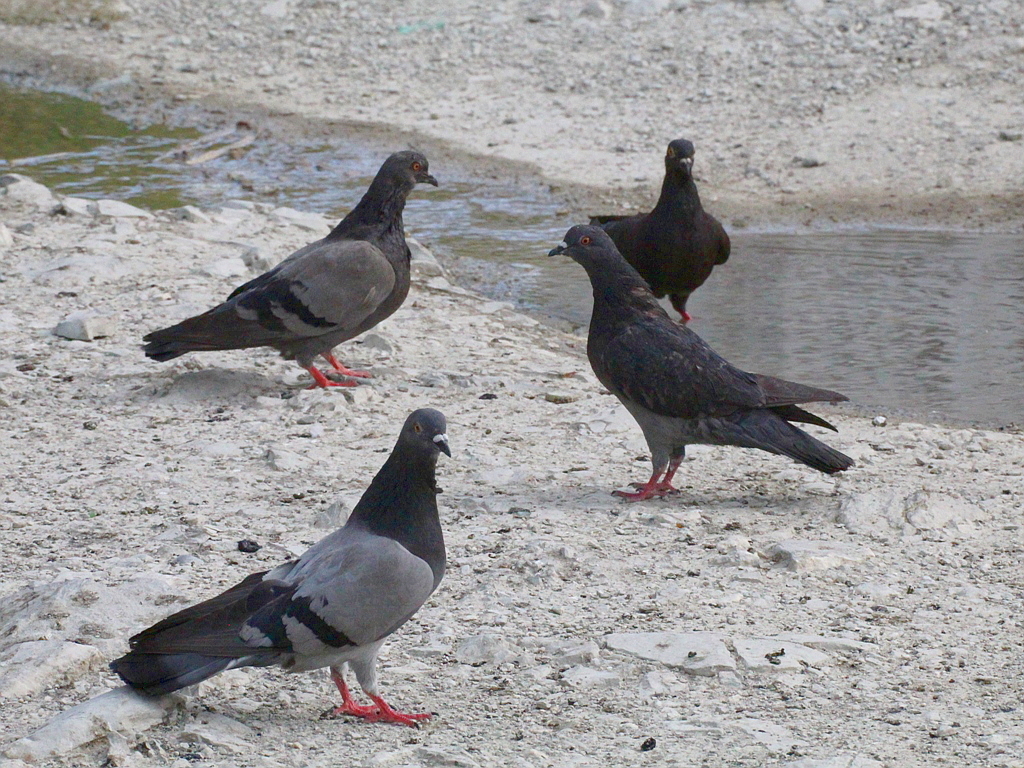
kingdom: Animalia
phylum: Chordata
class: Aves
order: Columbiformes
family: Columbidae
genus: Columba
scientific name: Columba livia
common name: Rock pigeon
